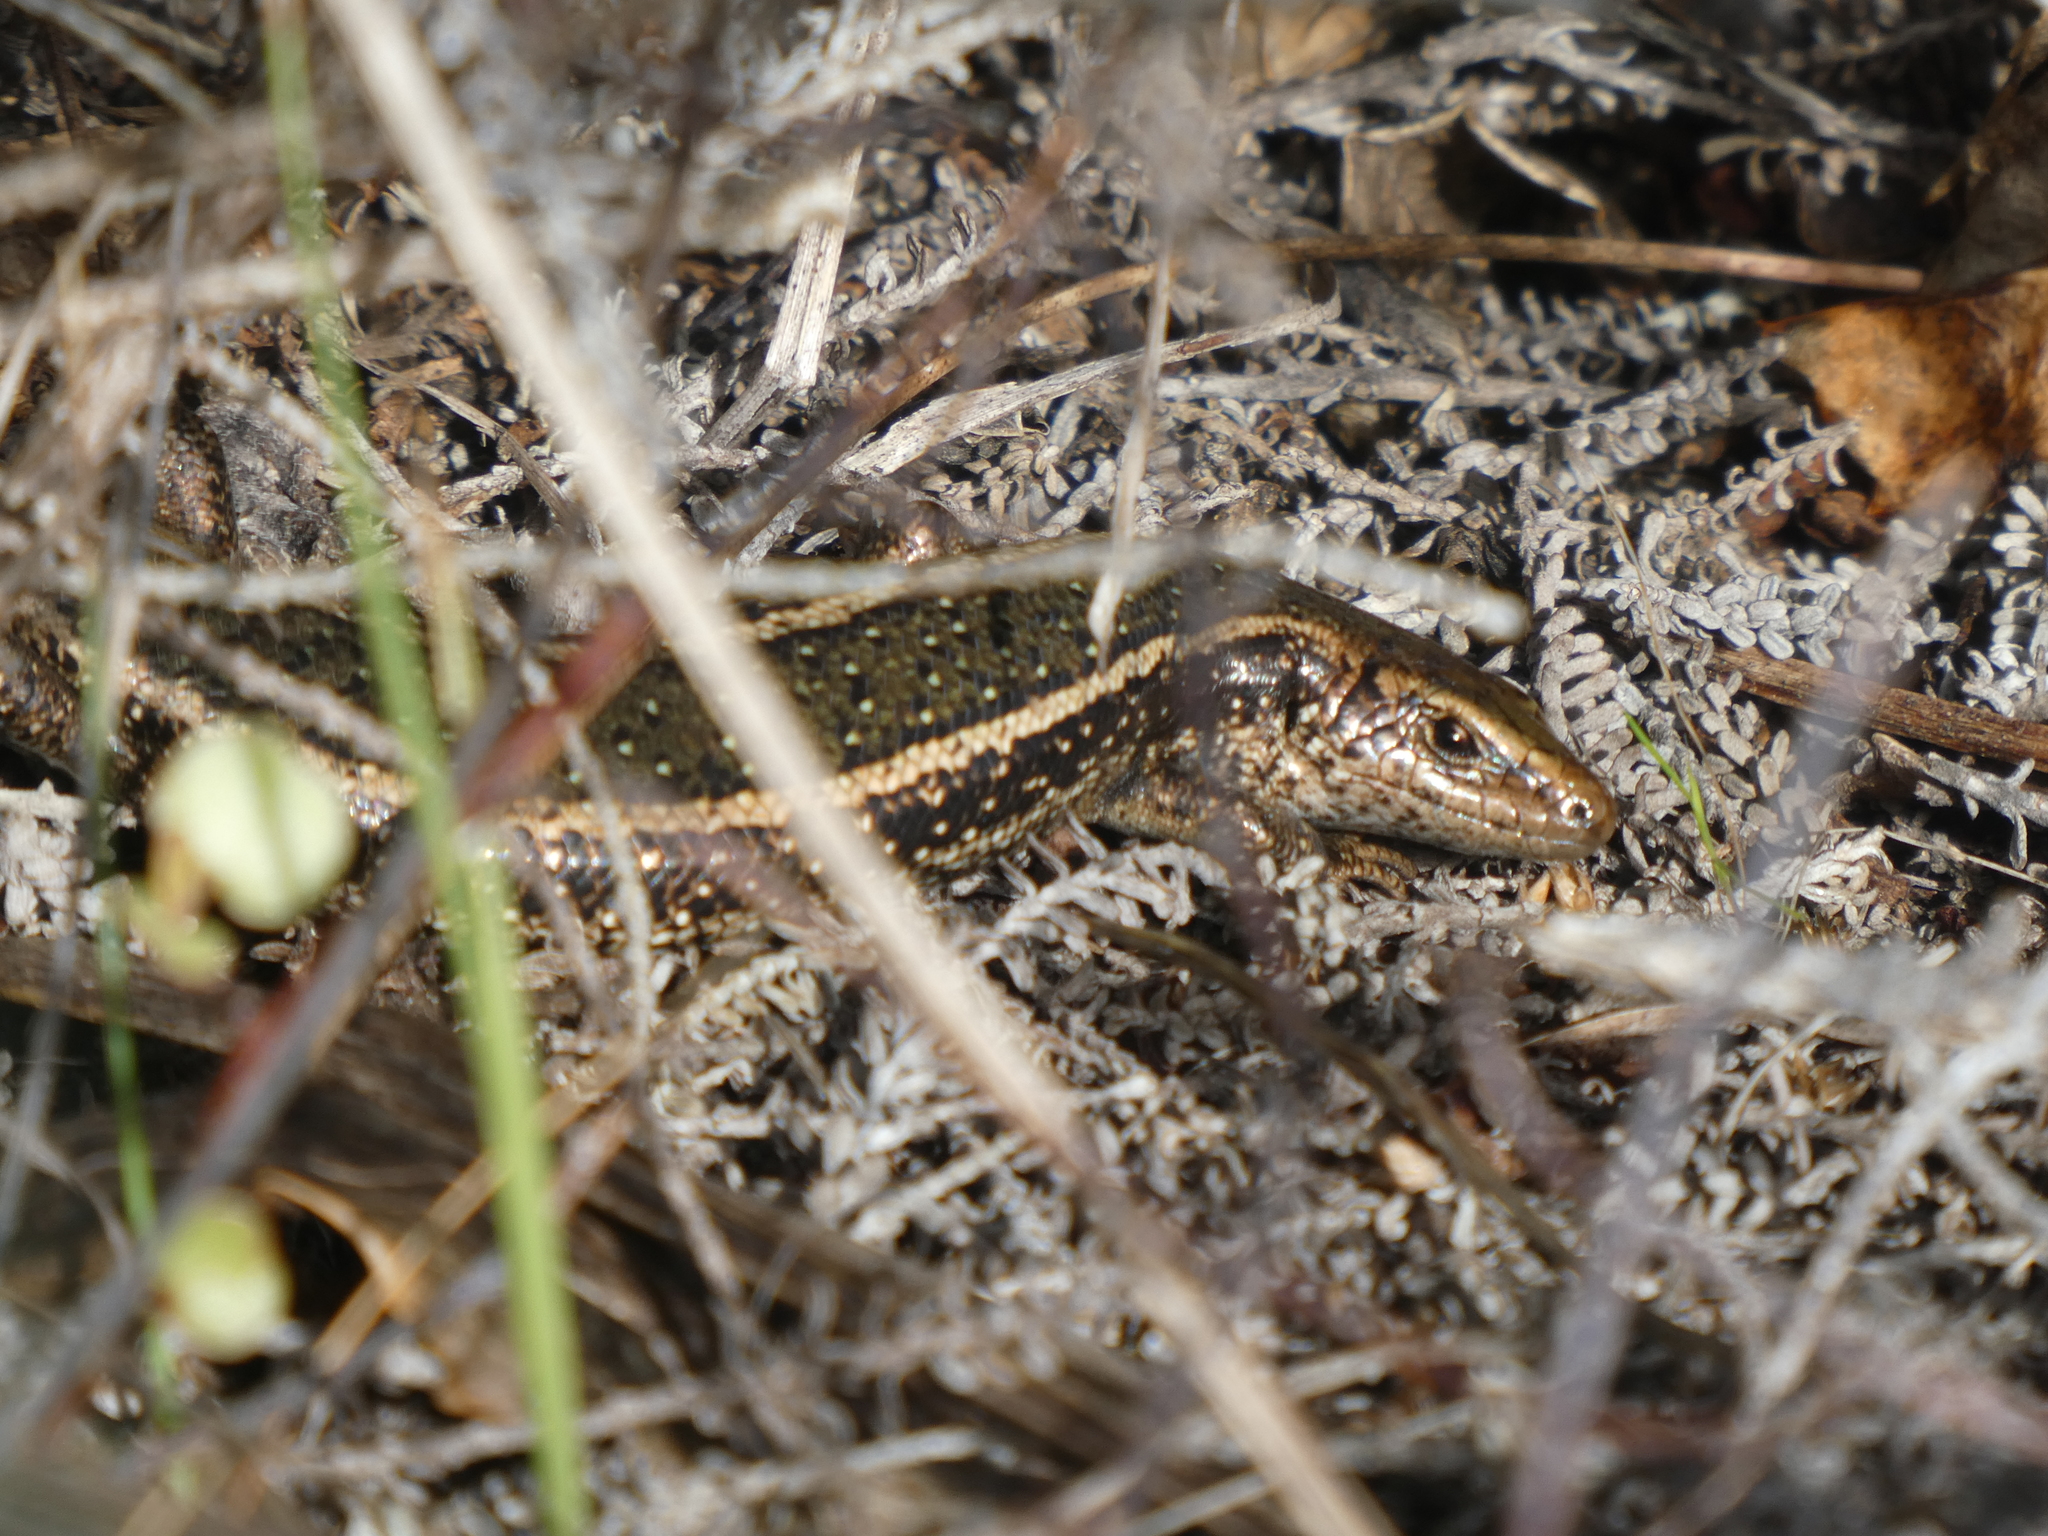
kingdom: Animalia
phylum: Chordata
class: Squamata
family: Scincidae
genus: Oligosoma
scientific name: Oligosoma kokowai
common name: Northern spotted skink
